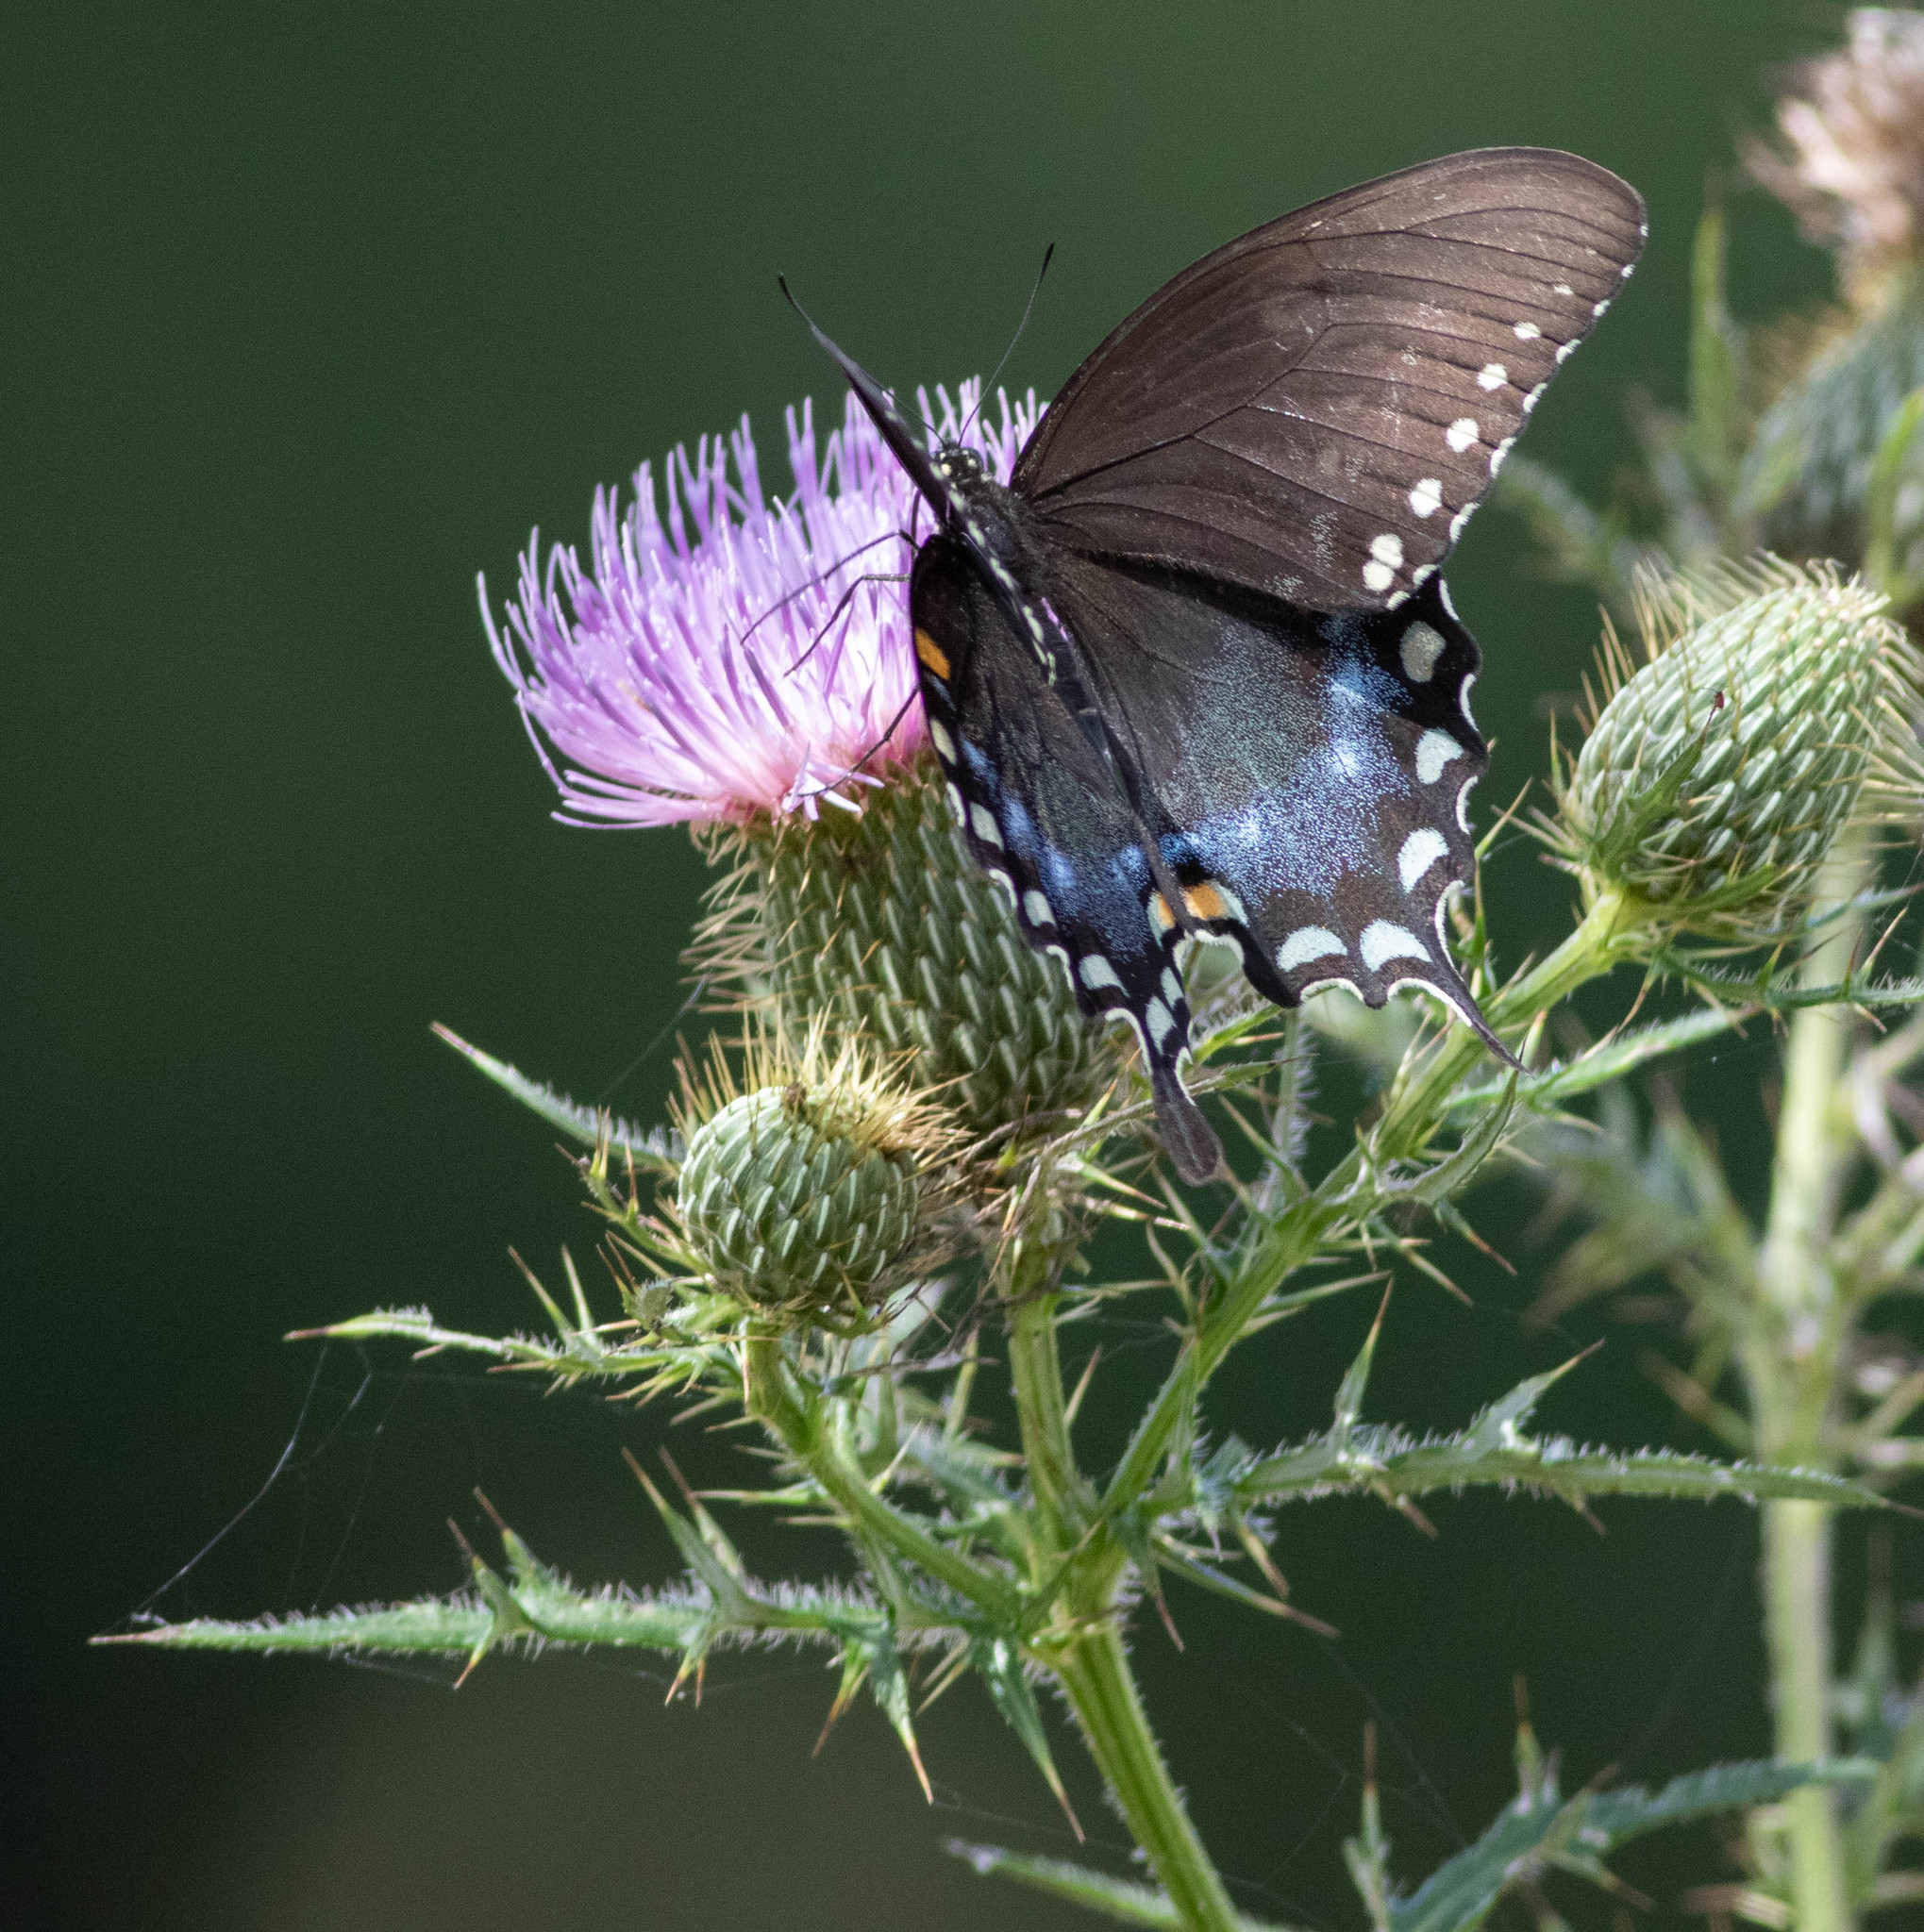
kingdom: Animalia
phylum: Arthropoda
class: Insecta
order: Lepidoptera
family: Papilionidae
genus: Papilio
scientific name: Papilio troilus
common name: Spicebush swallowtail
